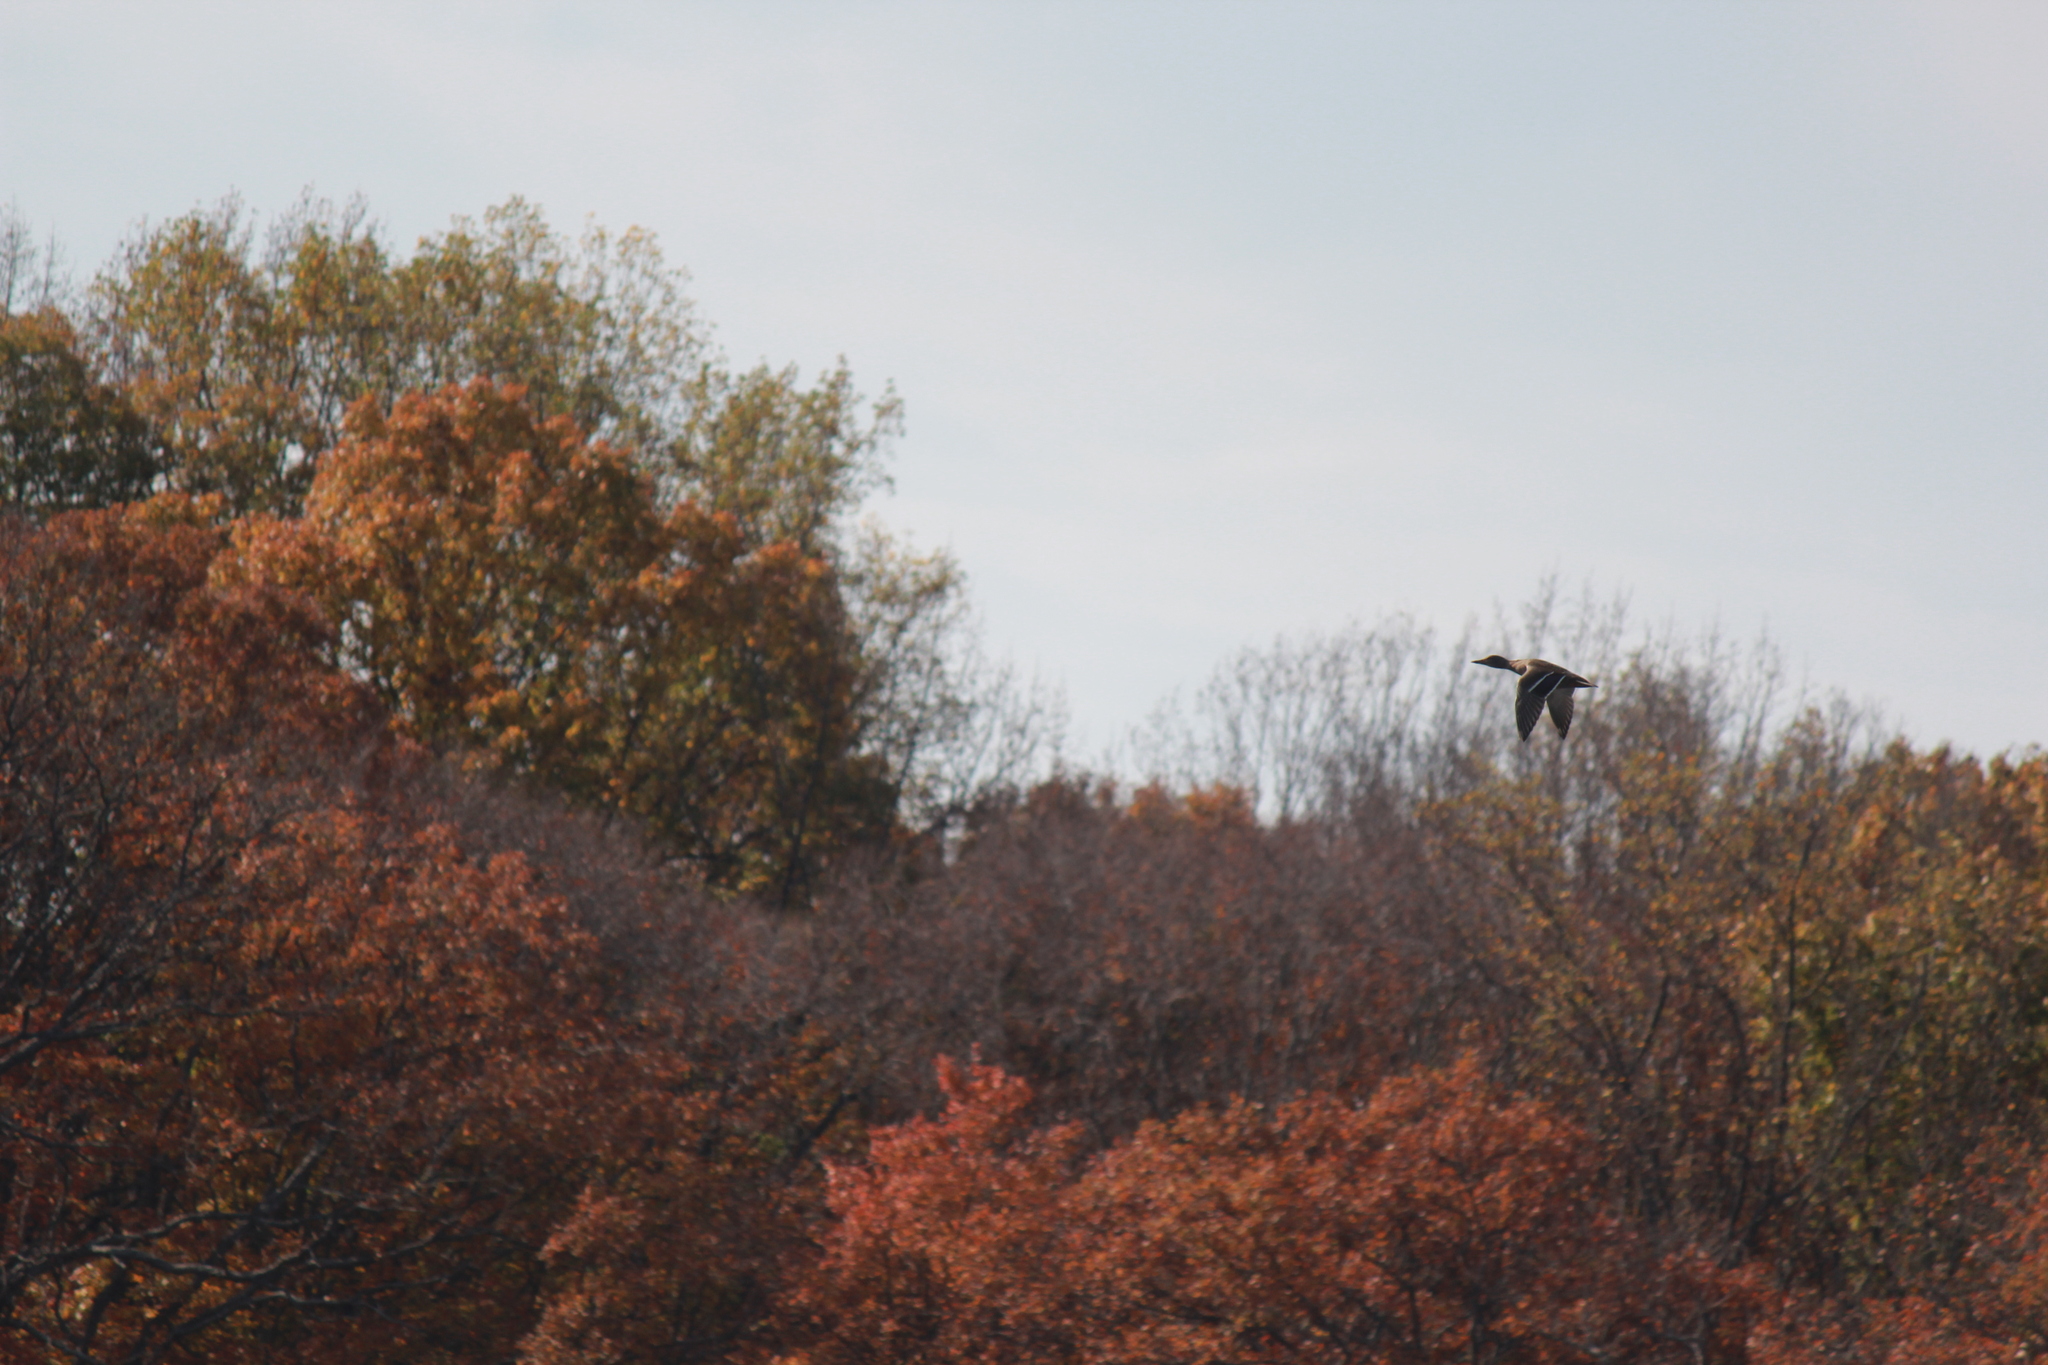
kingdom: Animalia
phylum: Chordata
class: Aves
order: Anseriformes
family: Anatidae
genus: Anas
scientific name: Anas platyrhynchos
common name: Mallard
